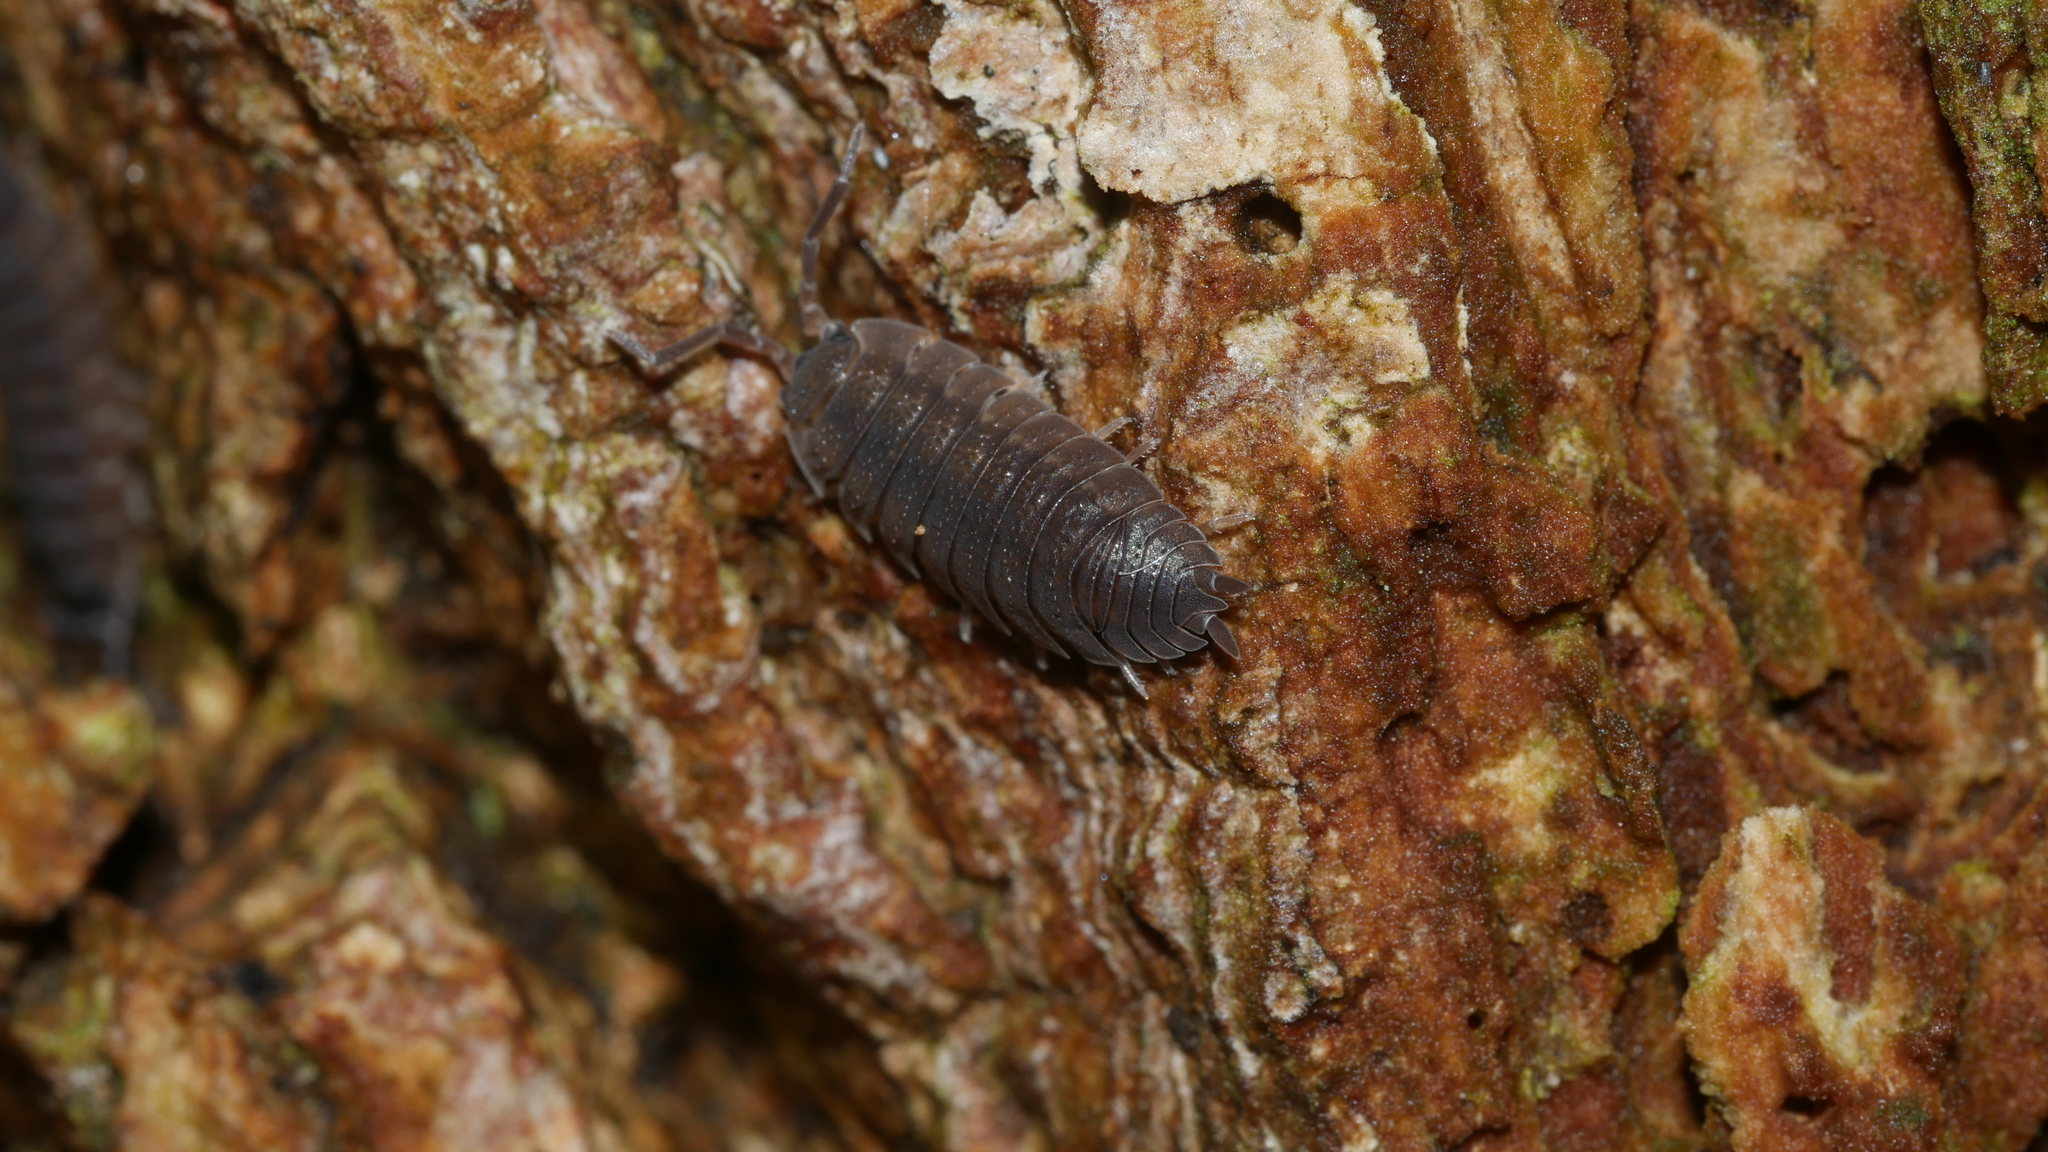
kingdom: Animalia
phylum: Arthropoda
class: Malacostraca
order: Isopoda
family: Porcellionidae
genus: Porcellio
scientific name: Porcellio scaber
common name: Common rough woodlouse
